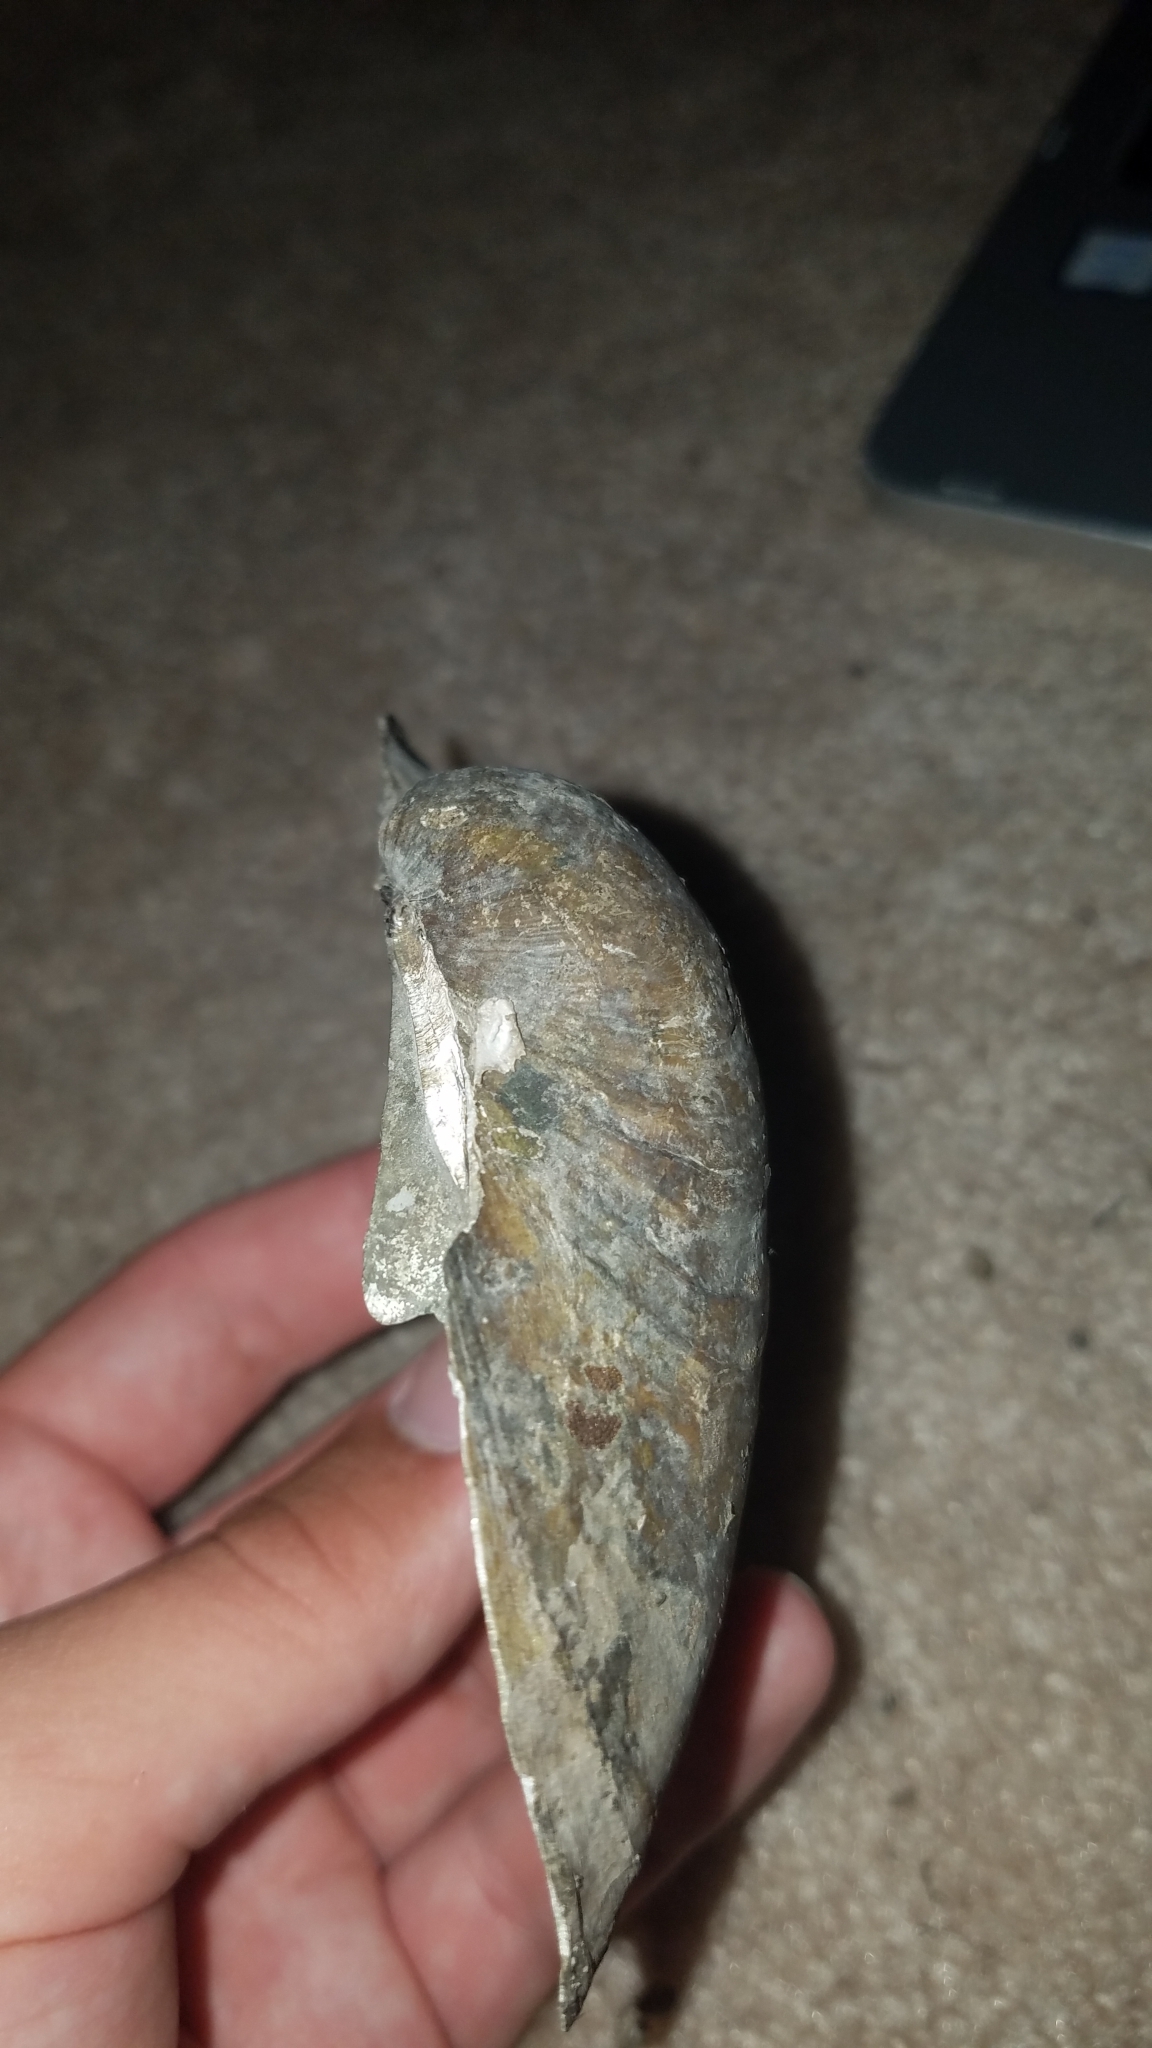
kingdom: Animalia
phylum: Mollusca
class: Bivalvia
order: Unionida
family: Unionidae
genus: Lampsilis
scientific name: Lampsilis cardium
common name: Plain pocketbook
